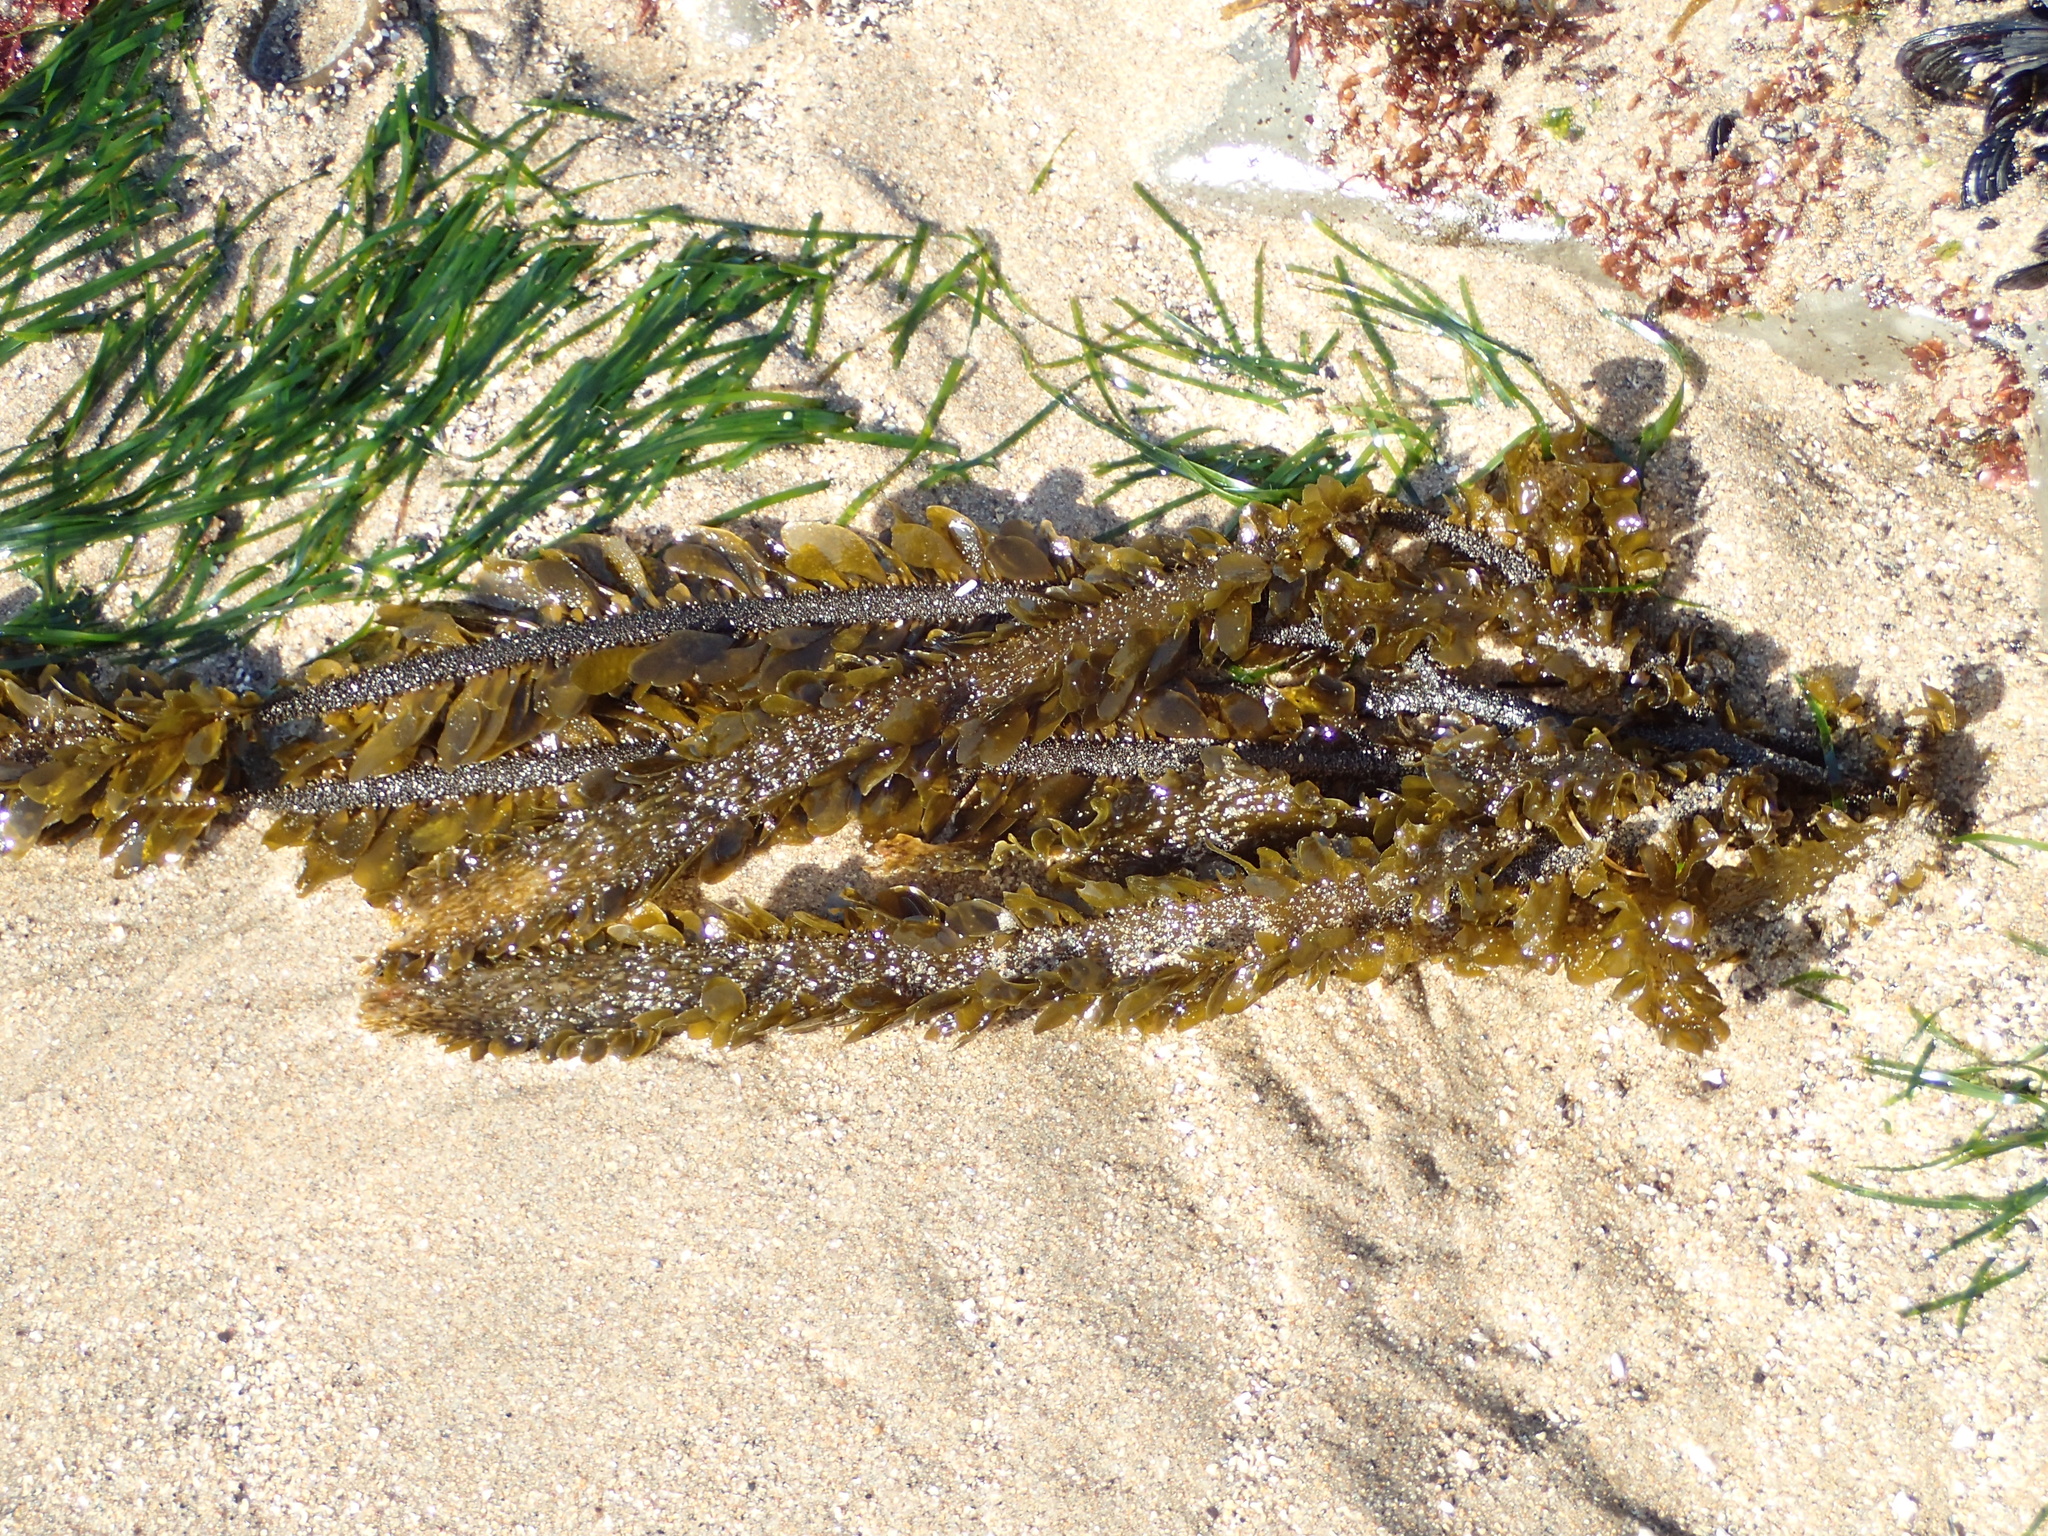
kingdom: Chromista
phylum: Ochrophyta
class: Phaeophyceae
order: Laminariales
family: Lessoniaceae
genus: Egregia
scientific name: Egregia menziesii
